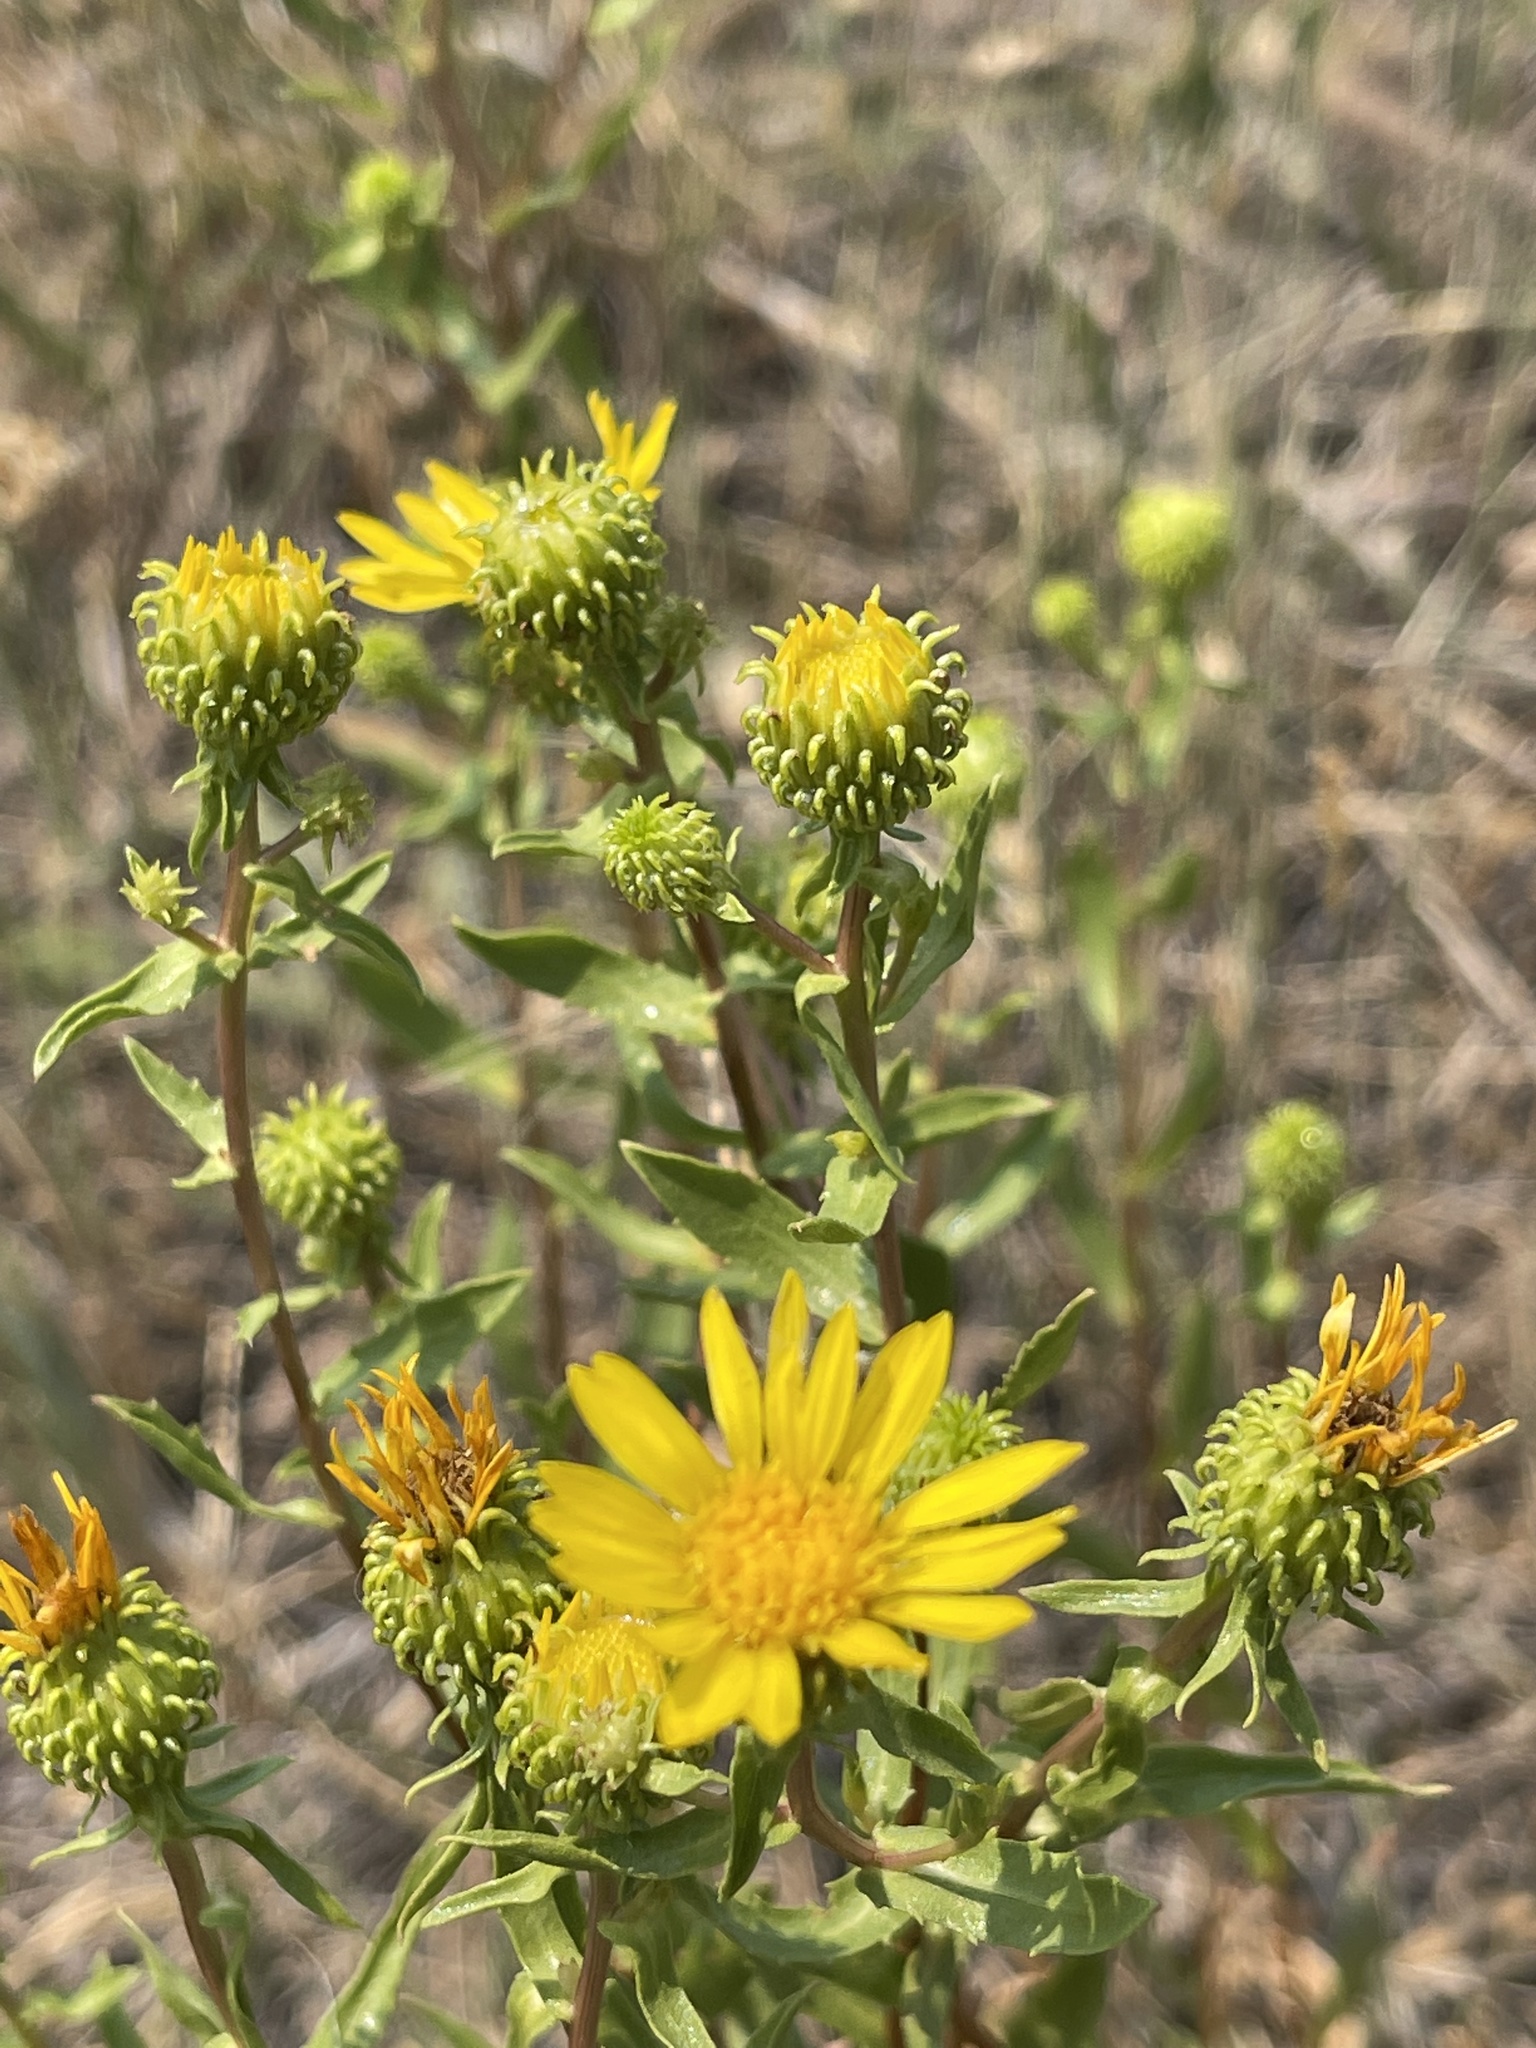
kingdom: Plantae
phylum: Tracheophyta
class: Magnoliopsida
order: Asterales
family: Asteraceae
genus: Grindelia
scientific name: Grindelia squarrosa
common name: Curly-cup gumweed
